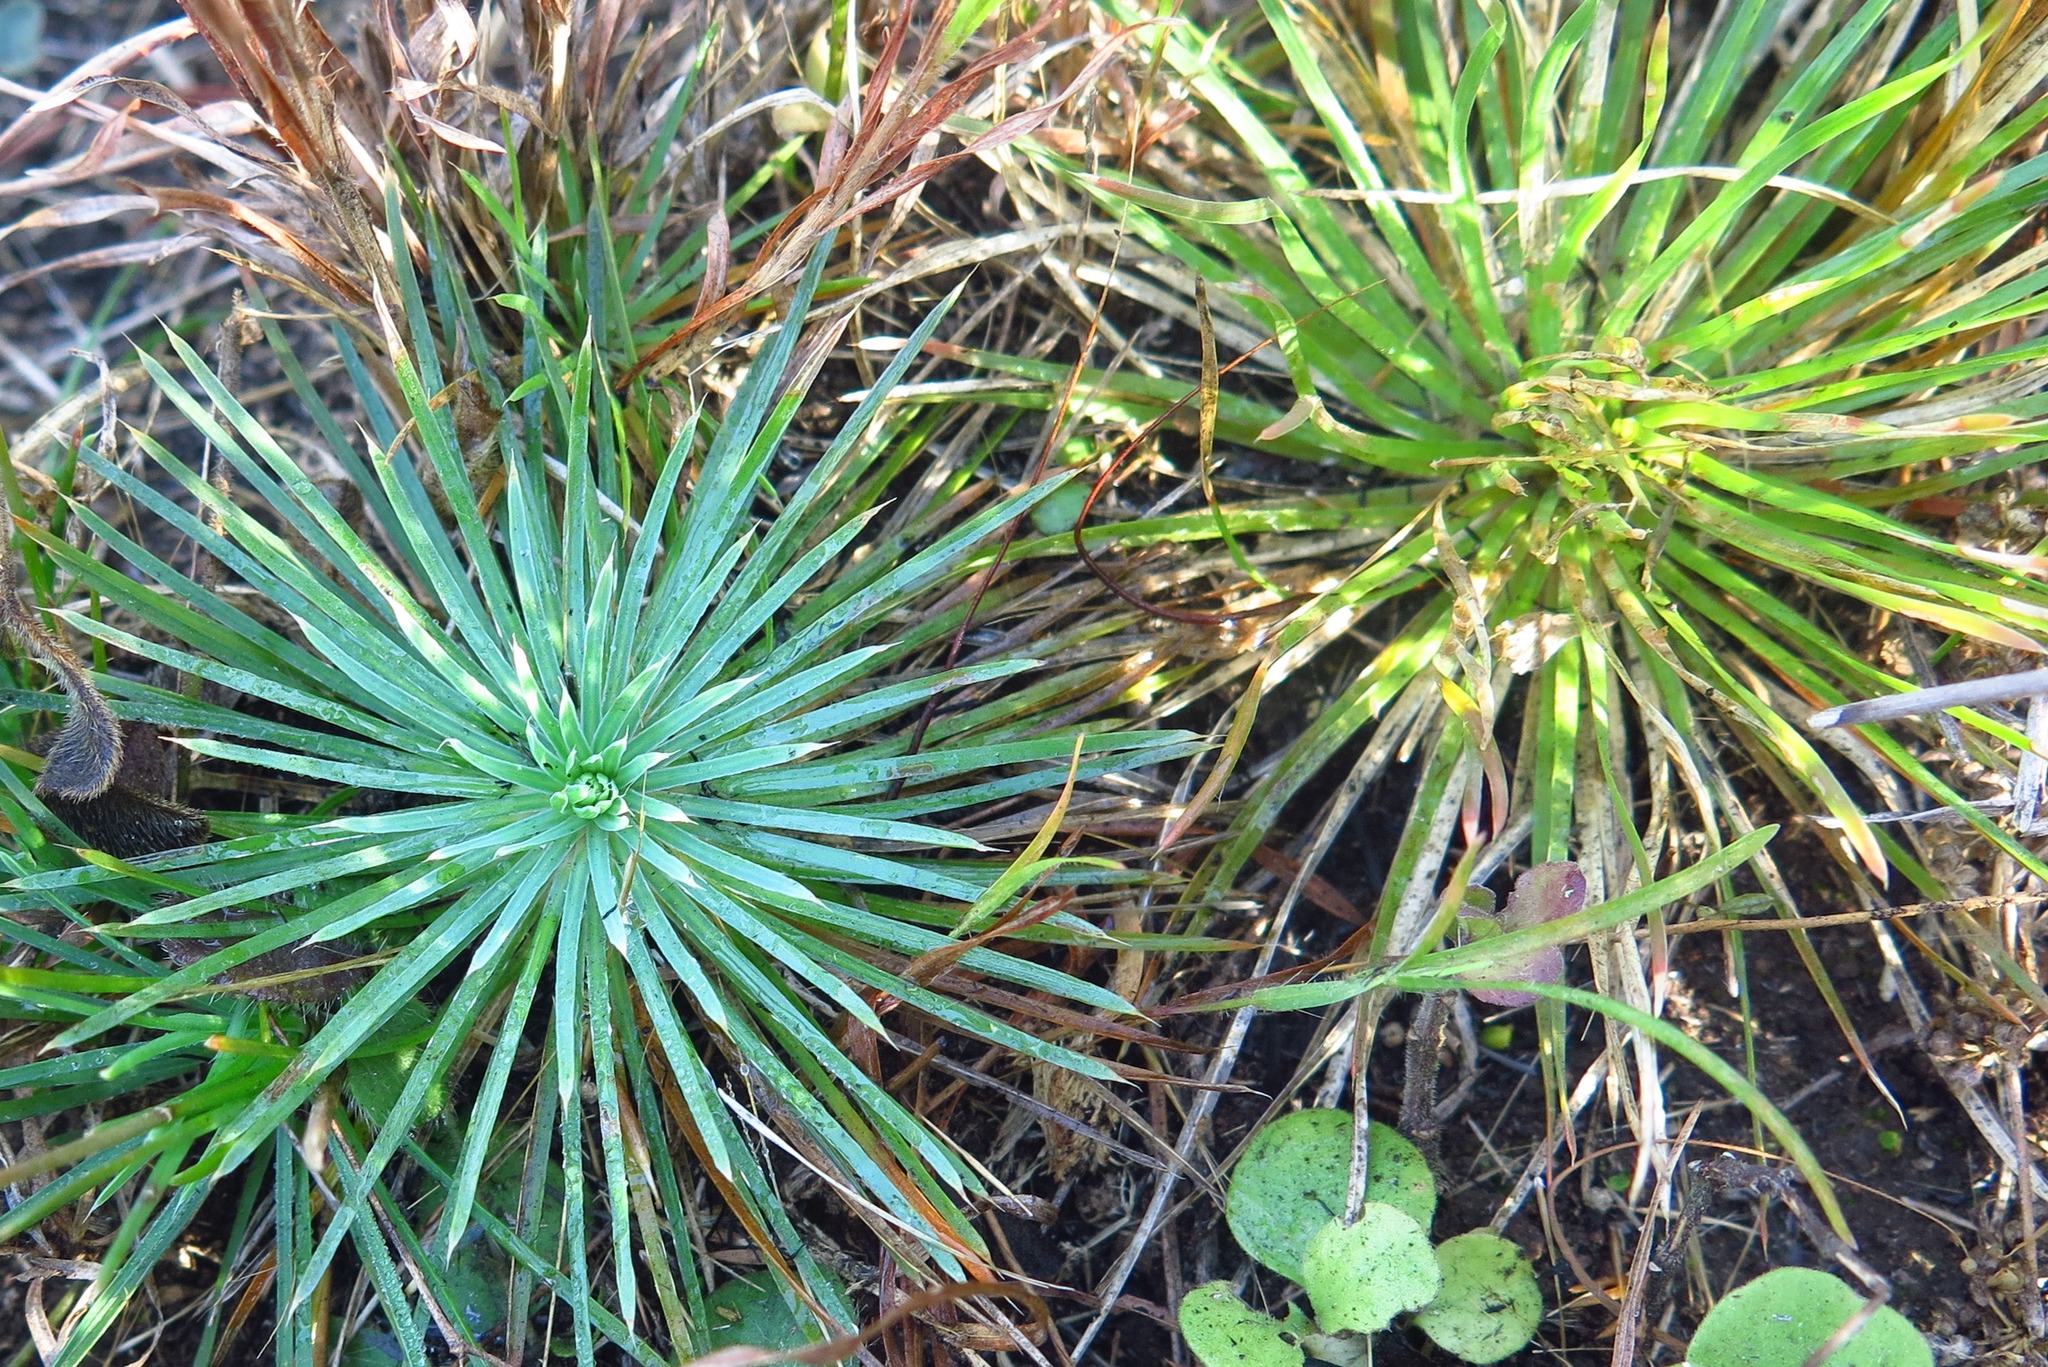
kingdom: Plantae
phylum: Tracheophyta
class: Magnoliopsida
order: Caryophyllales
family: Molluginaceae
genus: Psammotropha
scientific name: Psammotropha myriantha
